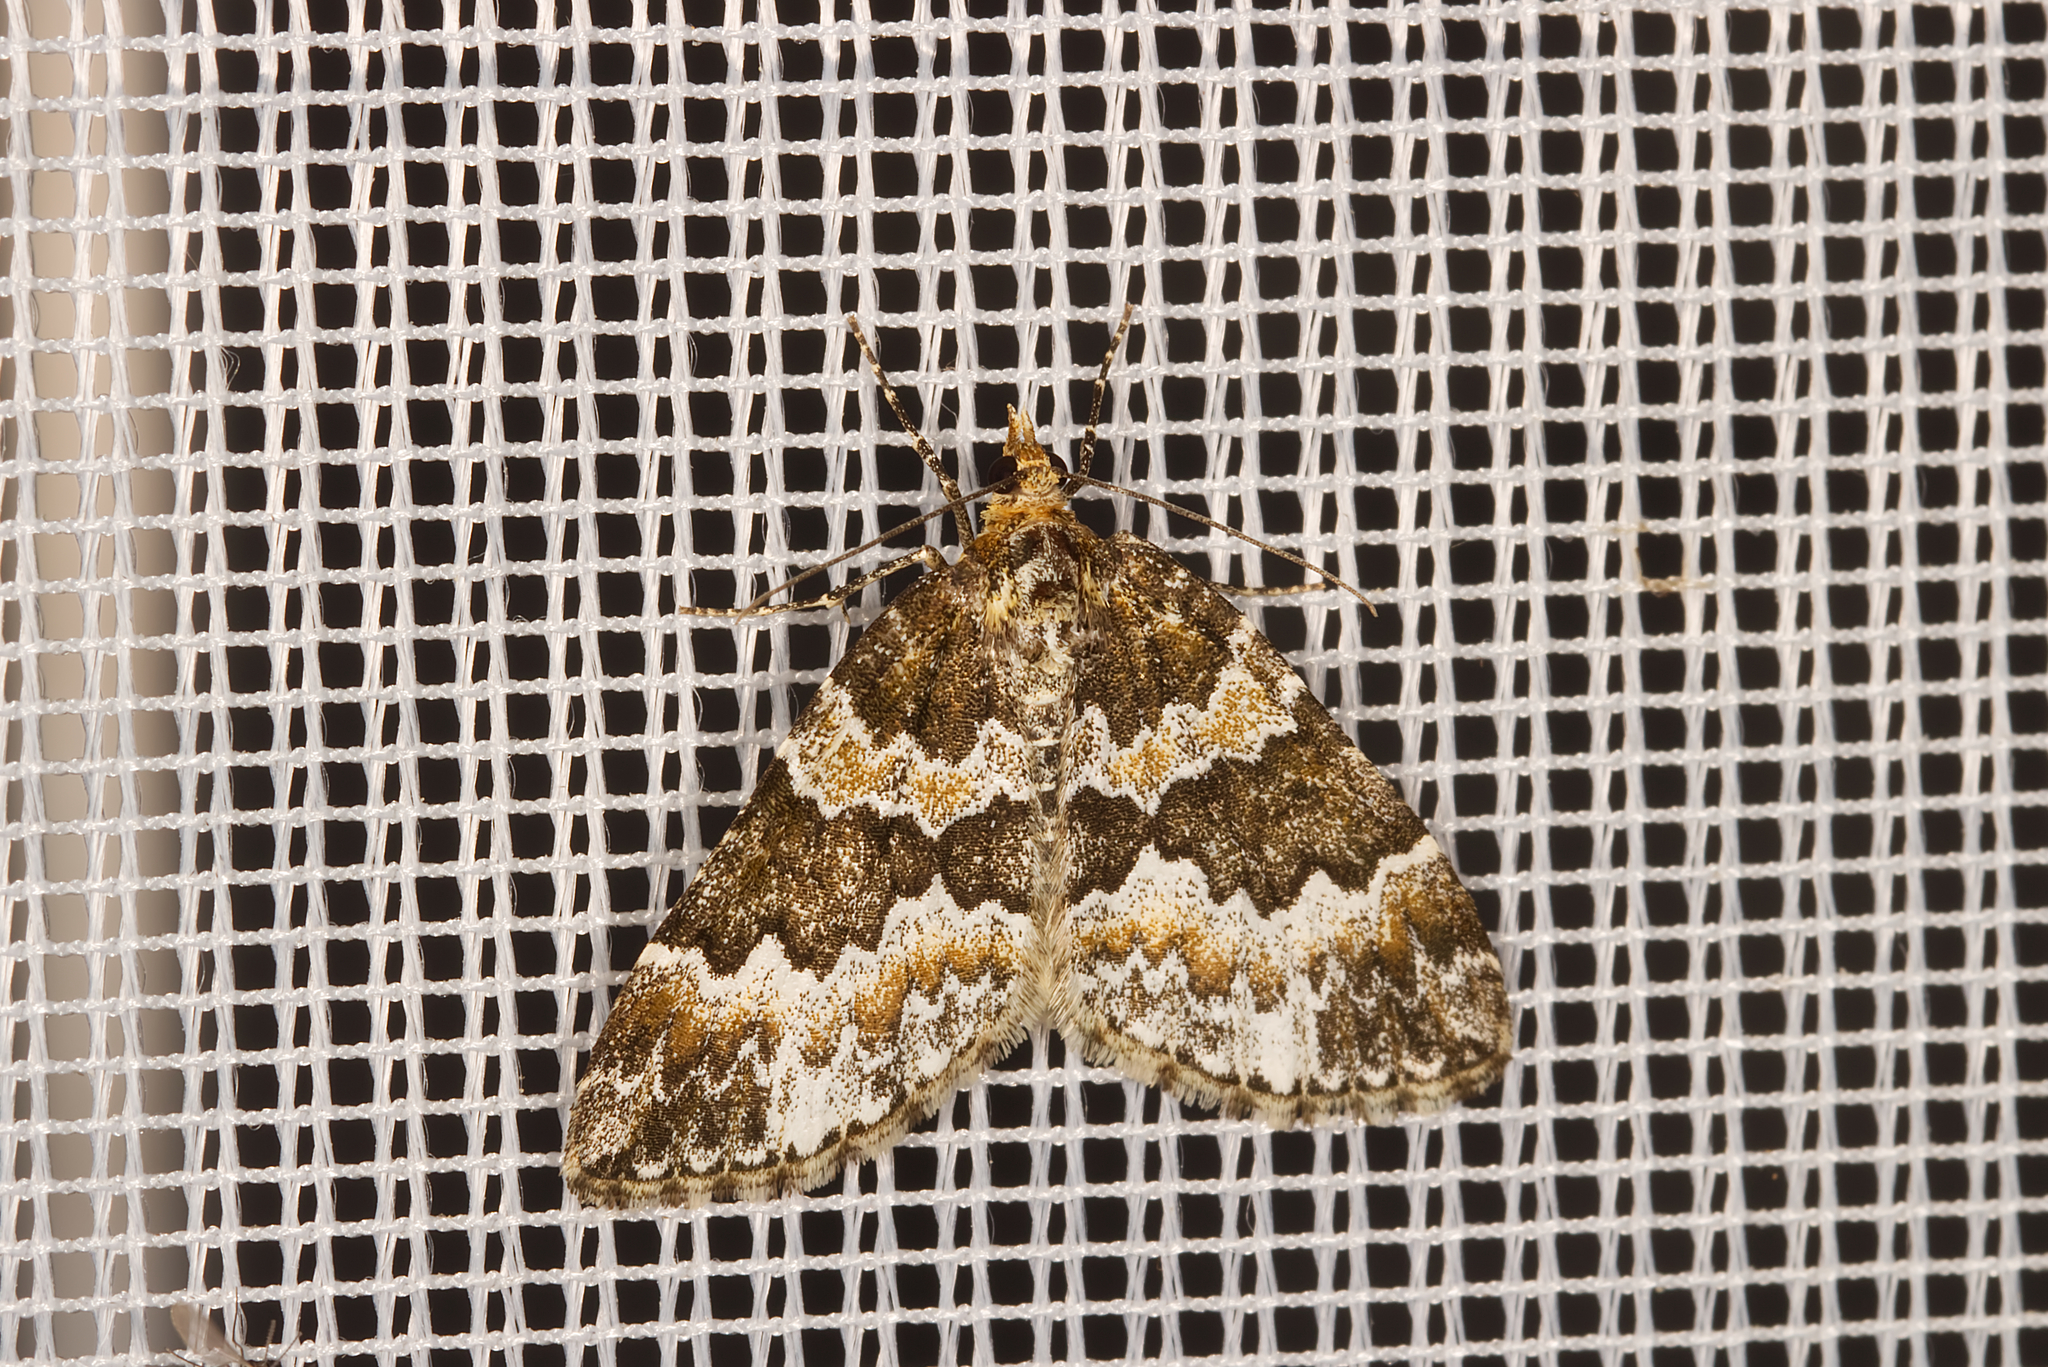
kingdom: Animalia
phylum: Arthropoda
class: Insecta
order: Lepidoptera
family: Geometridae
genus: Electrophaes
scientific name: Electrophaes corylata
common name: Broken-barred carpet
